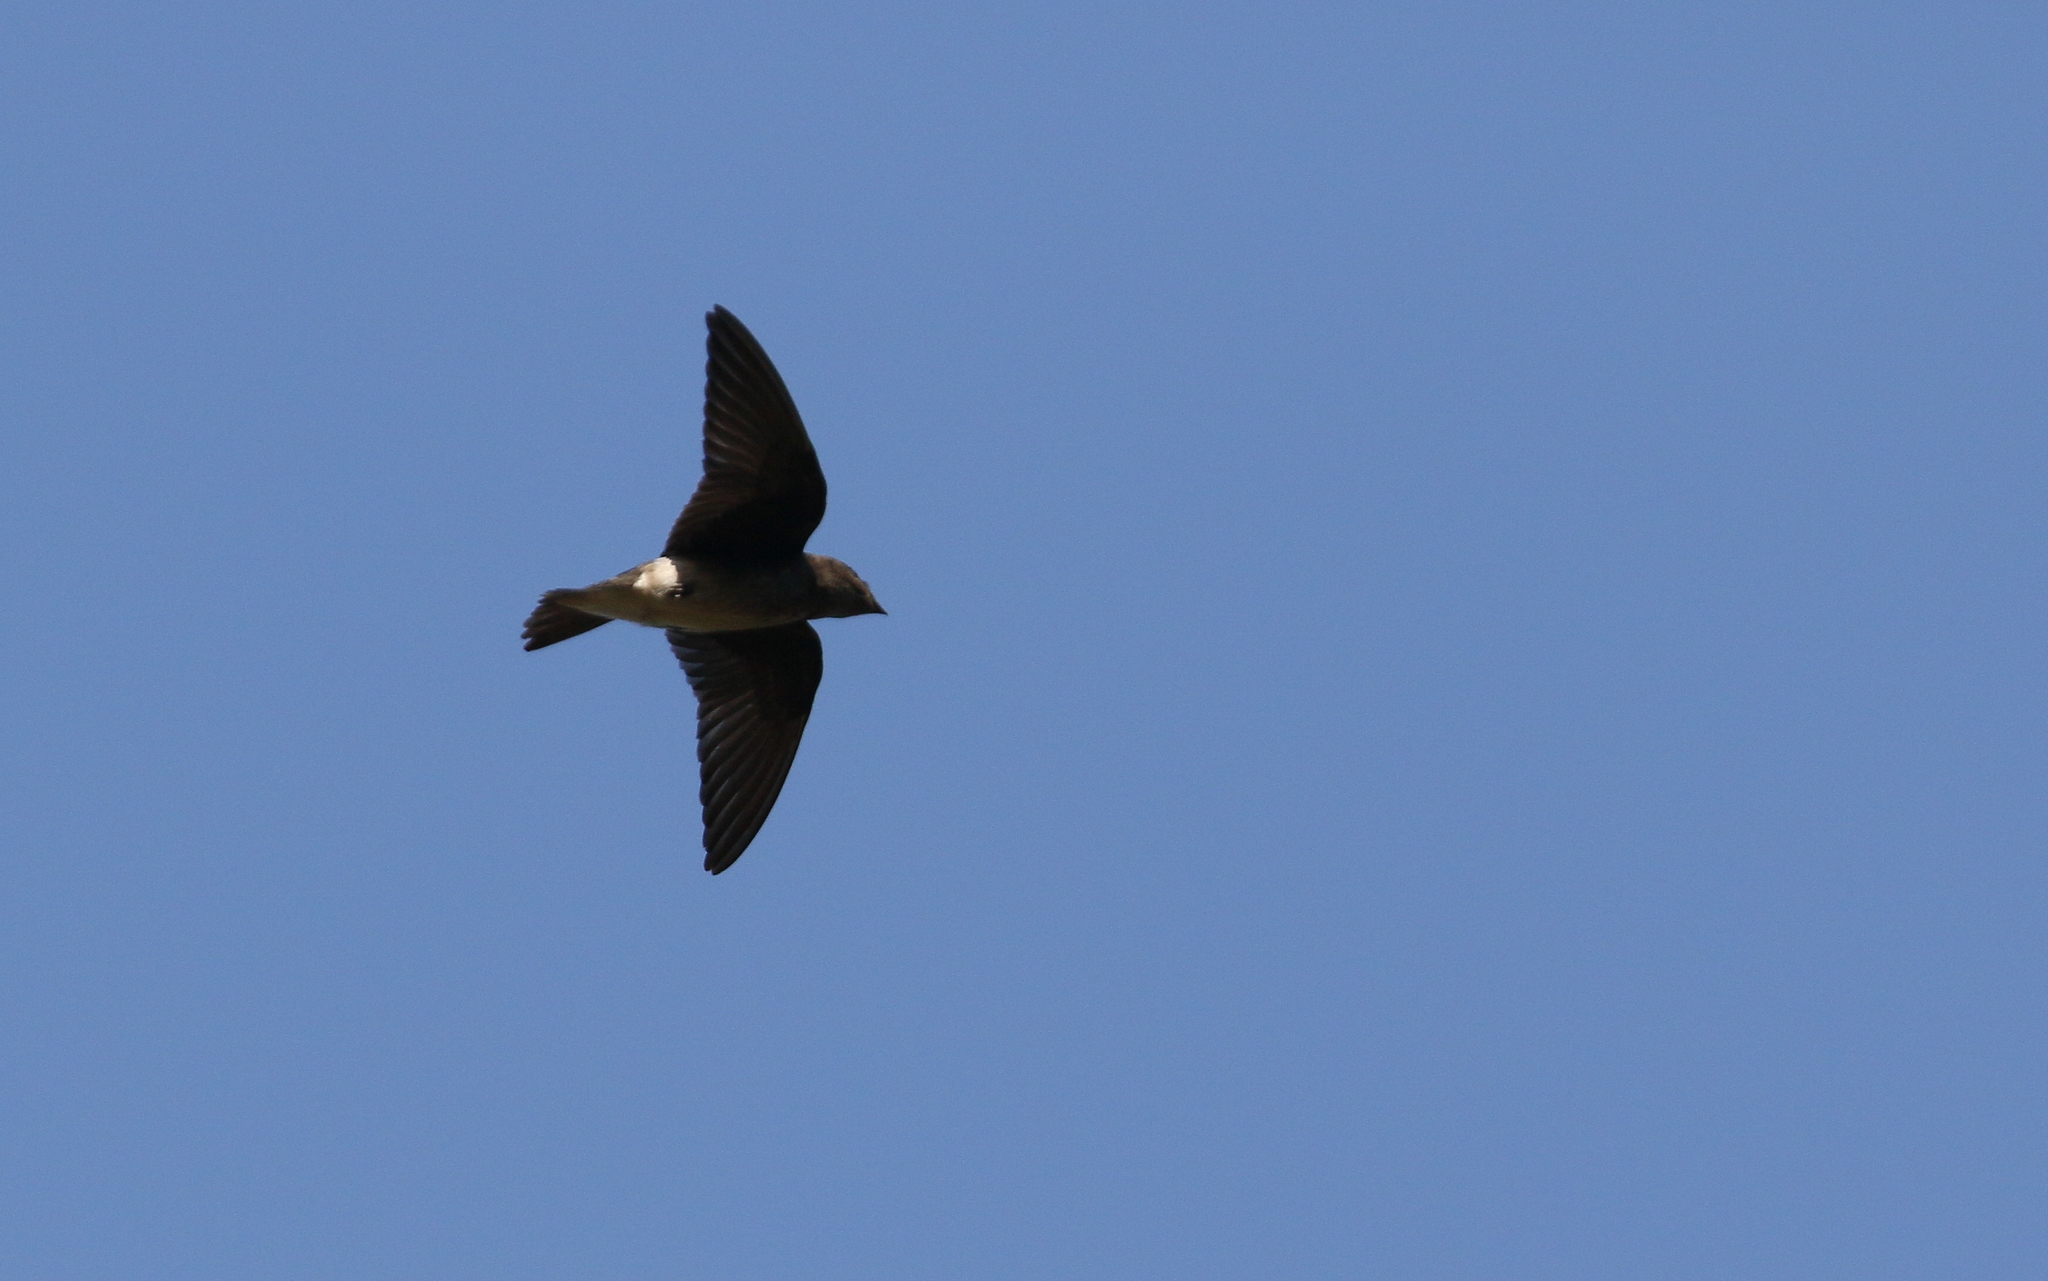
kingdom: Animalia
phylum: Chordata
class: Aves
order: Passeriformes
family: Hirundinidae
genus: Progne
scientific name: Progne chalybea
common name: Grey-breasted martin
